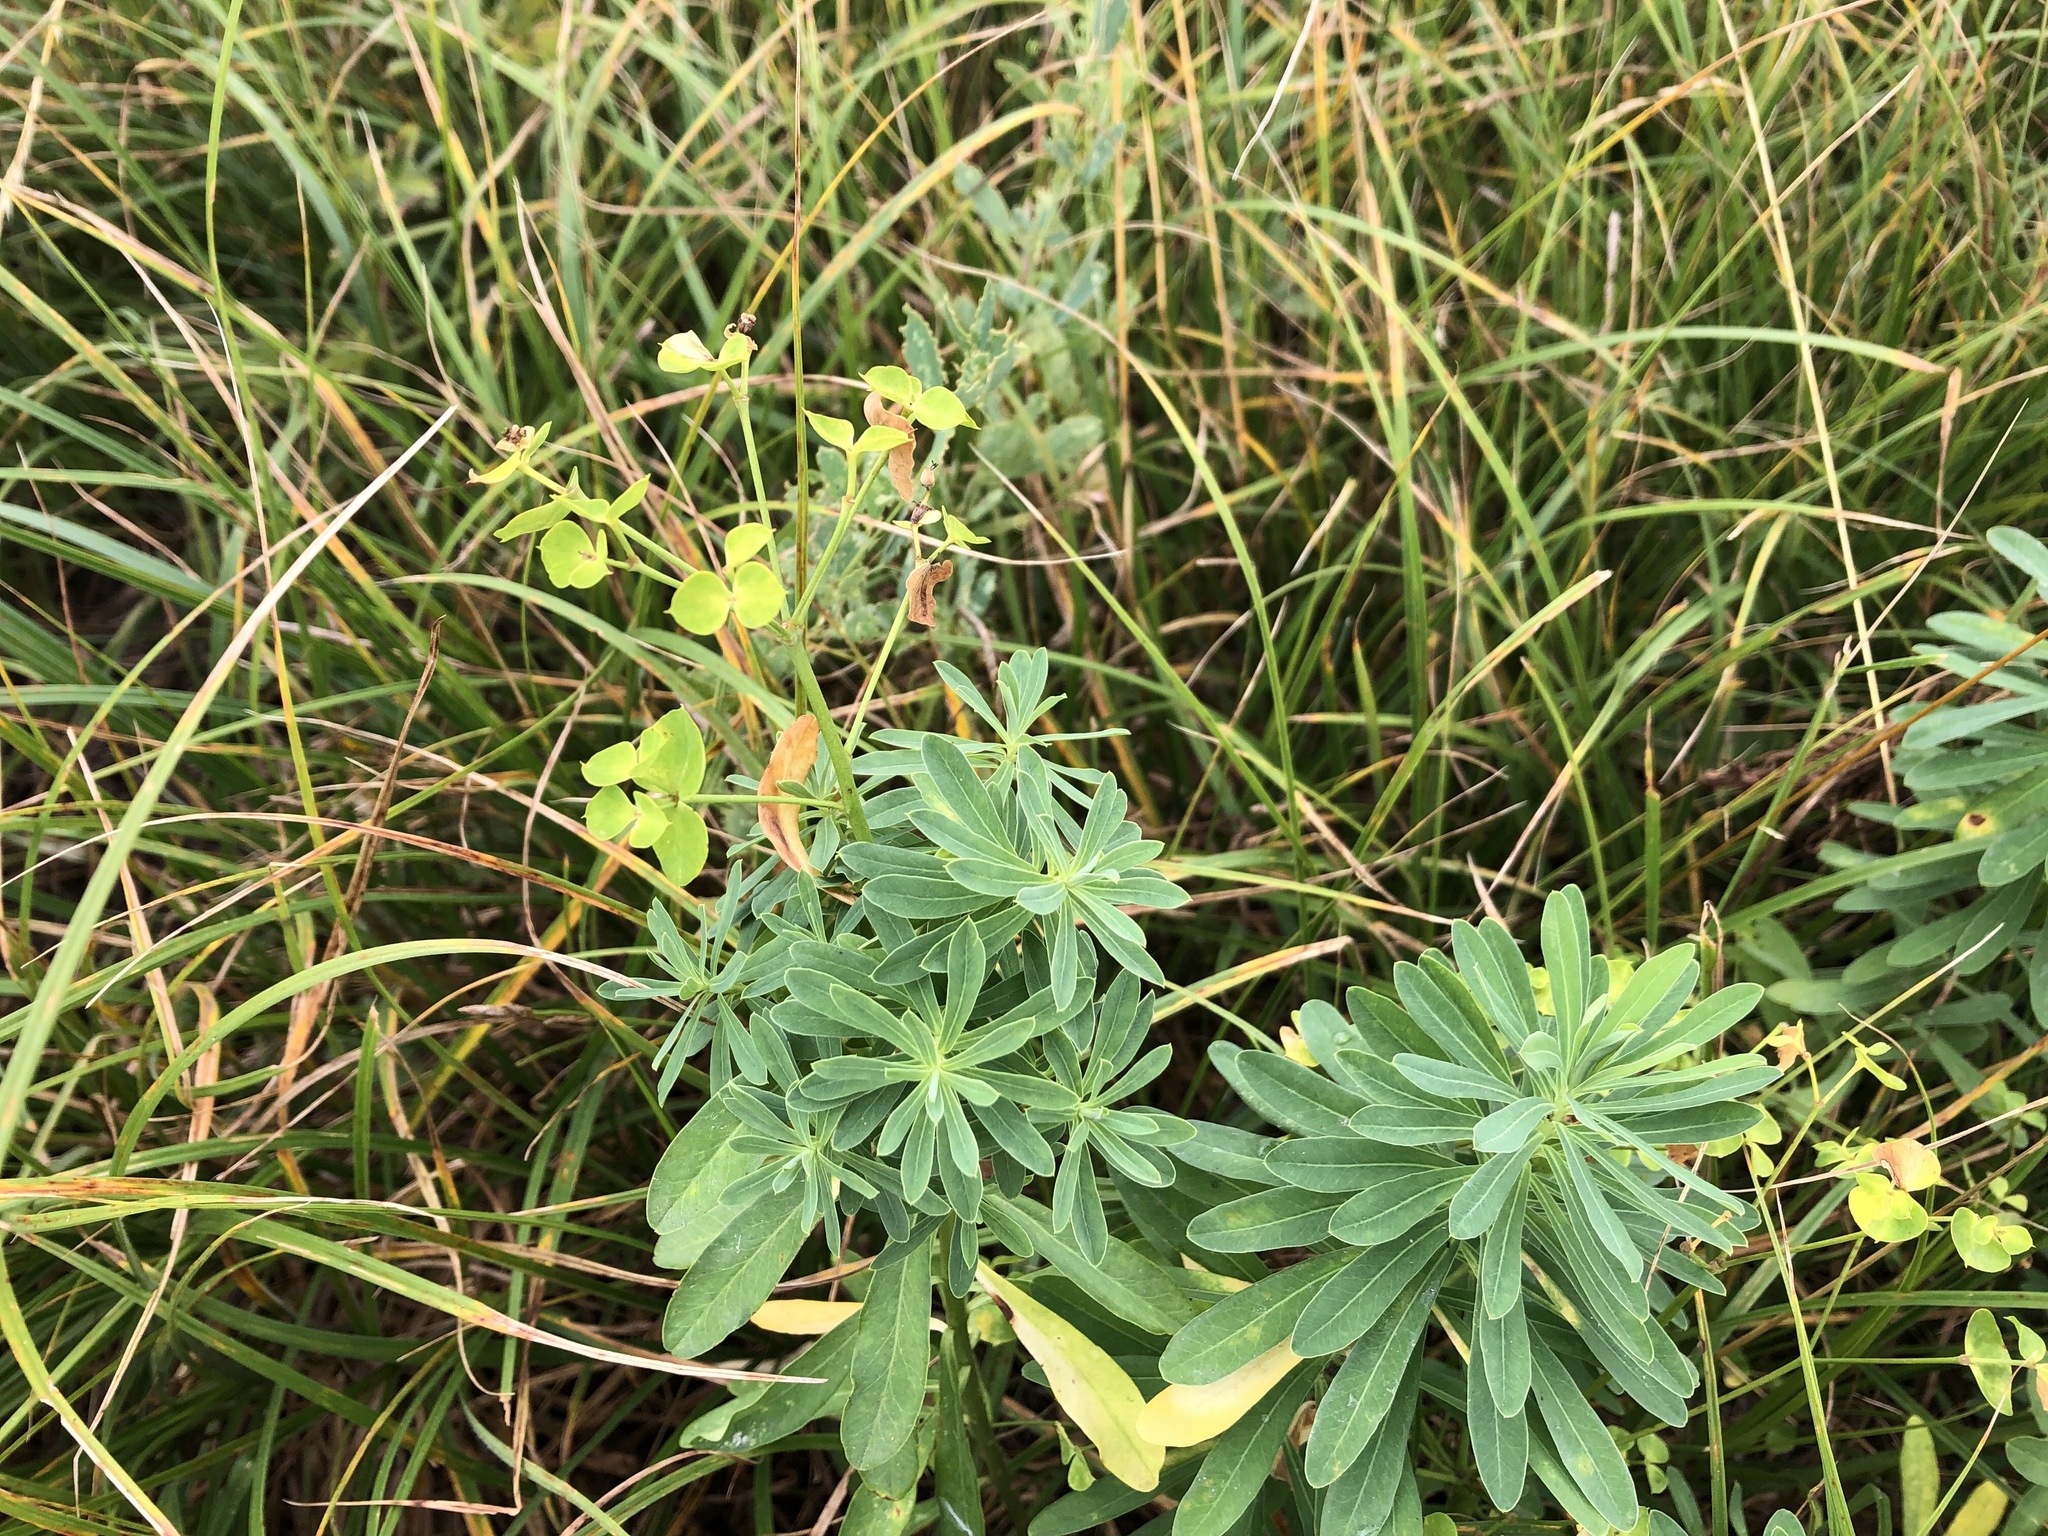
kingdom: Plantae
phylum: Tracheophyta
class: Magnoliopsida
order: Malpighiales
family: Euphorbiaceae
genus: Euphorbia
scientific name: Euphorbia esula
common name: Leafy spurge
